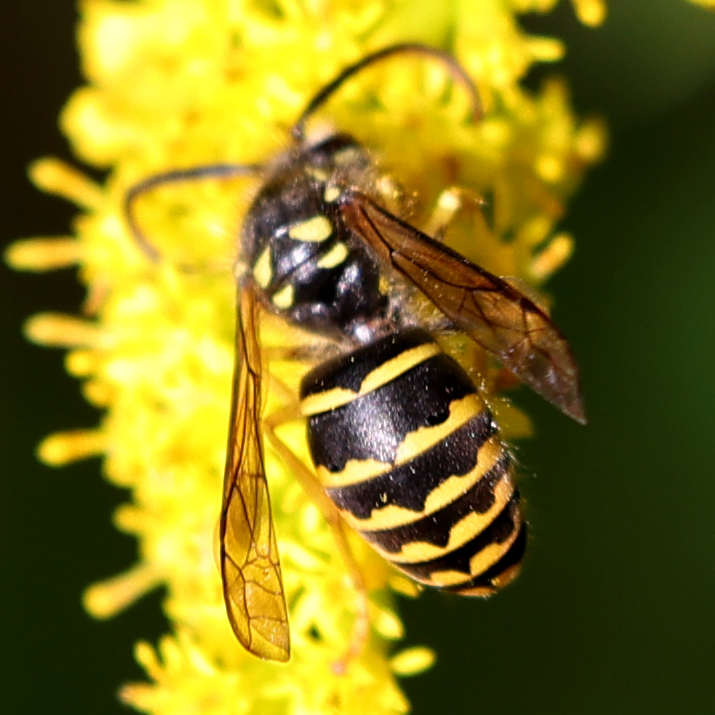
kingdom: Animalia
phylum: Arthropoda
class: Insecta
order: Hymenoptera
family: Vespidae
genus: Dolichovespula
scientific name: Dolichovespula arenaria
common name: Aerial yellowjacket
